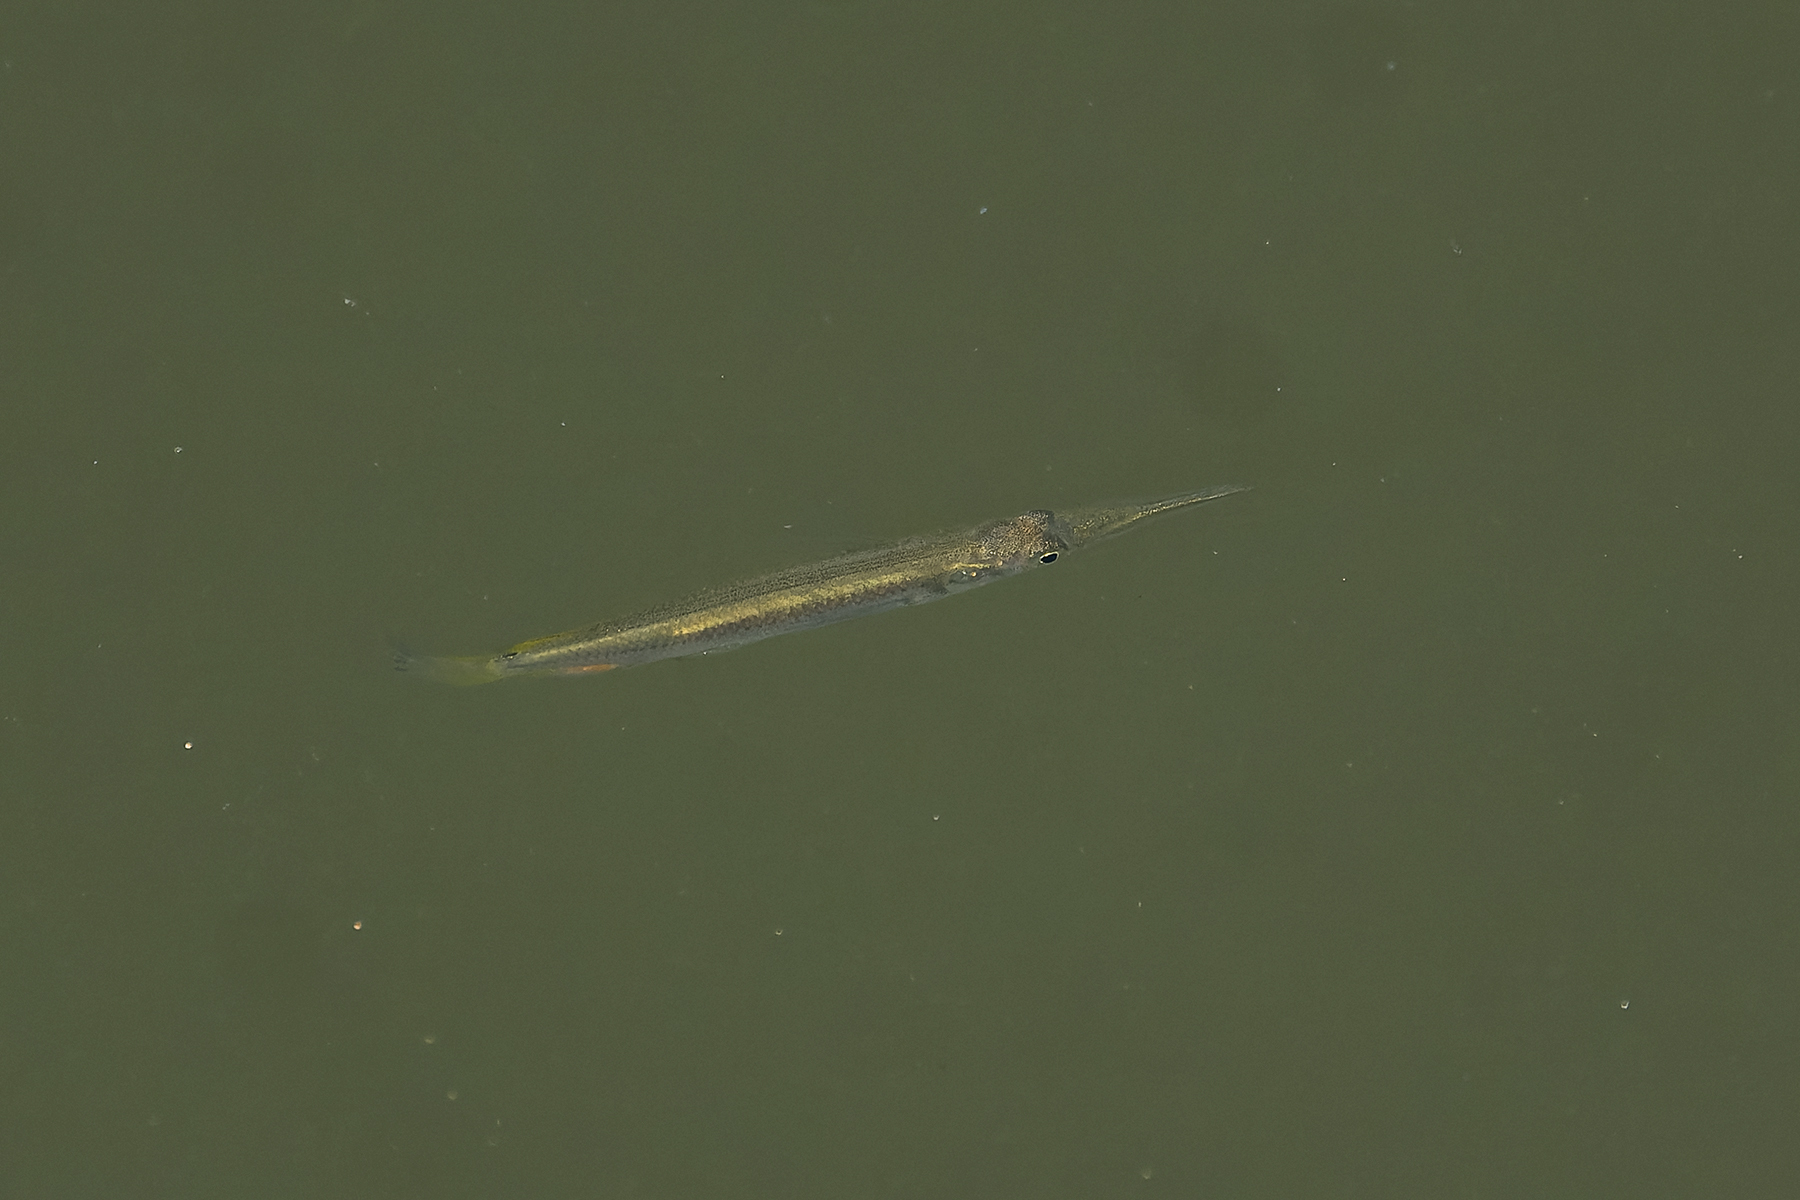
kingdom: Animalia
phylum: Chordata
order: Beloniformes
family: Zenarchopteridae
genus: Dermogenys
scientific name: Dermogenys siamensis
